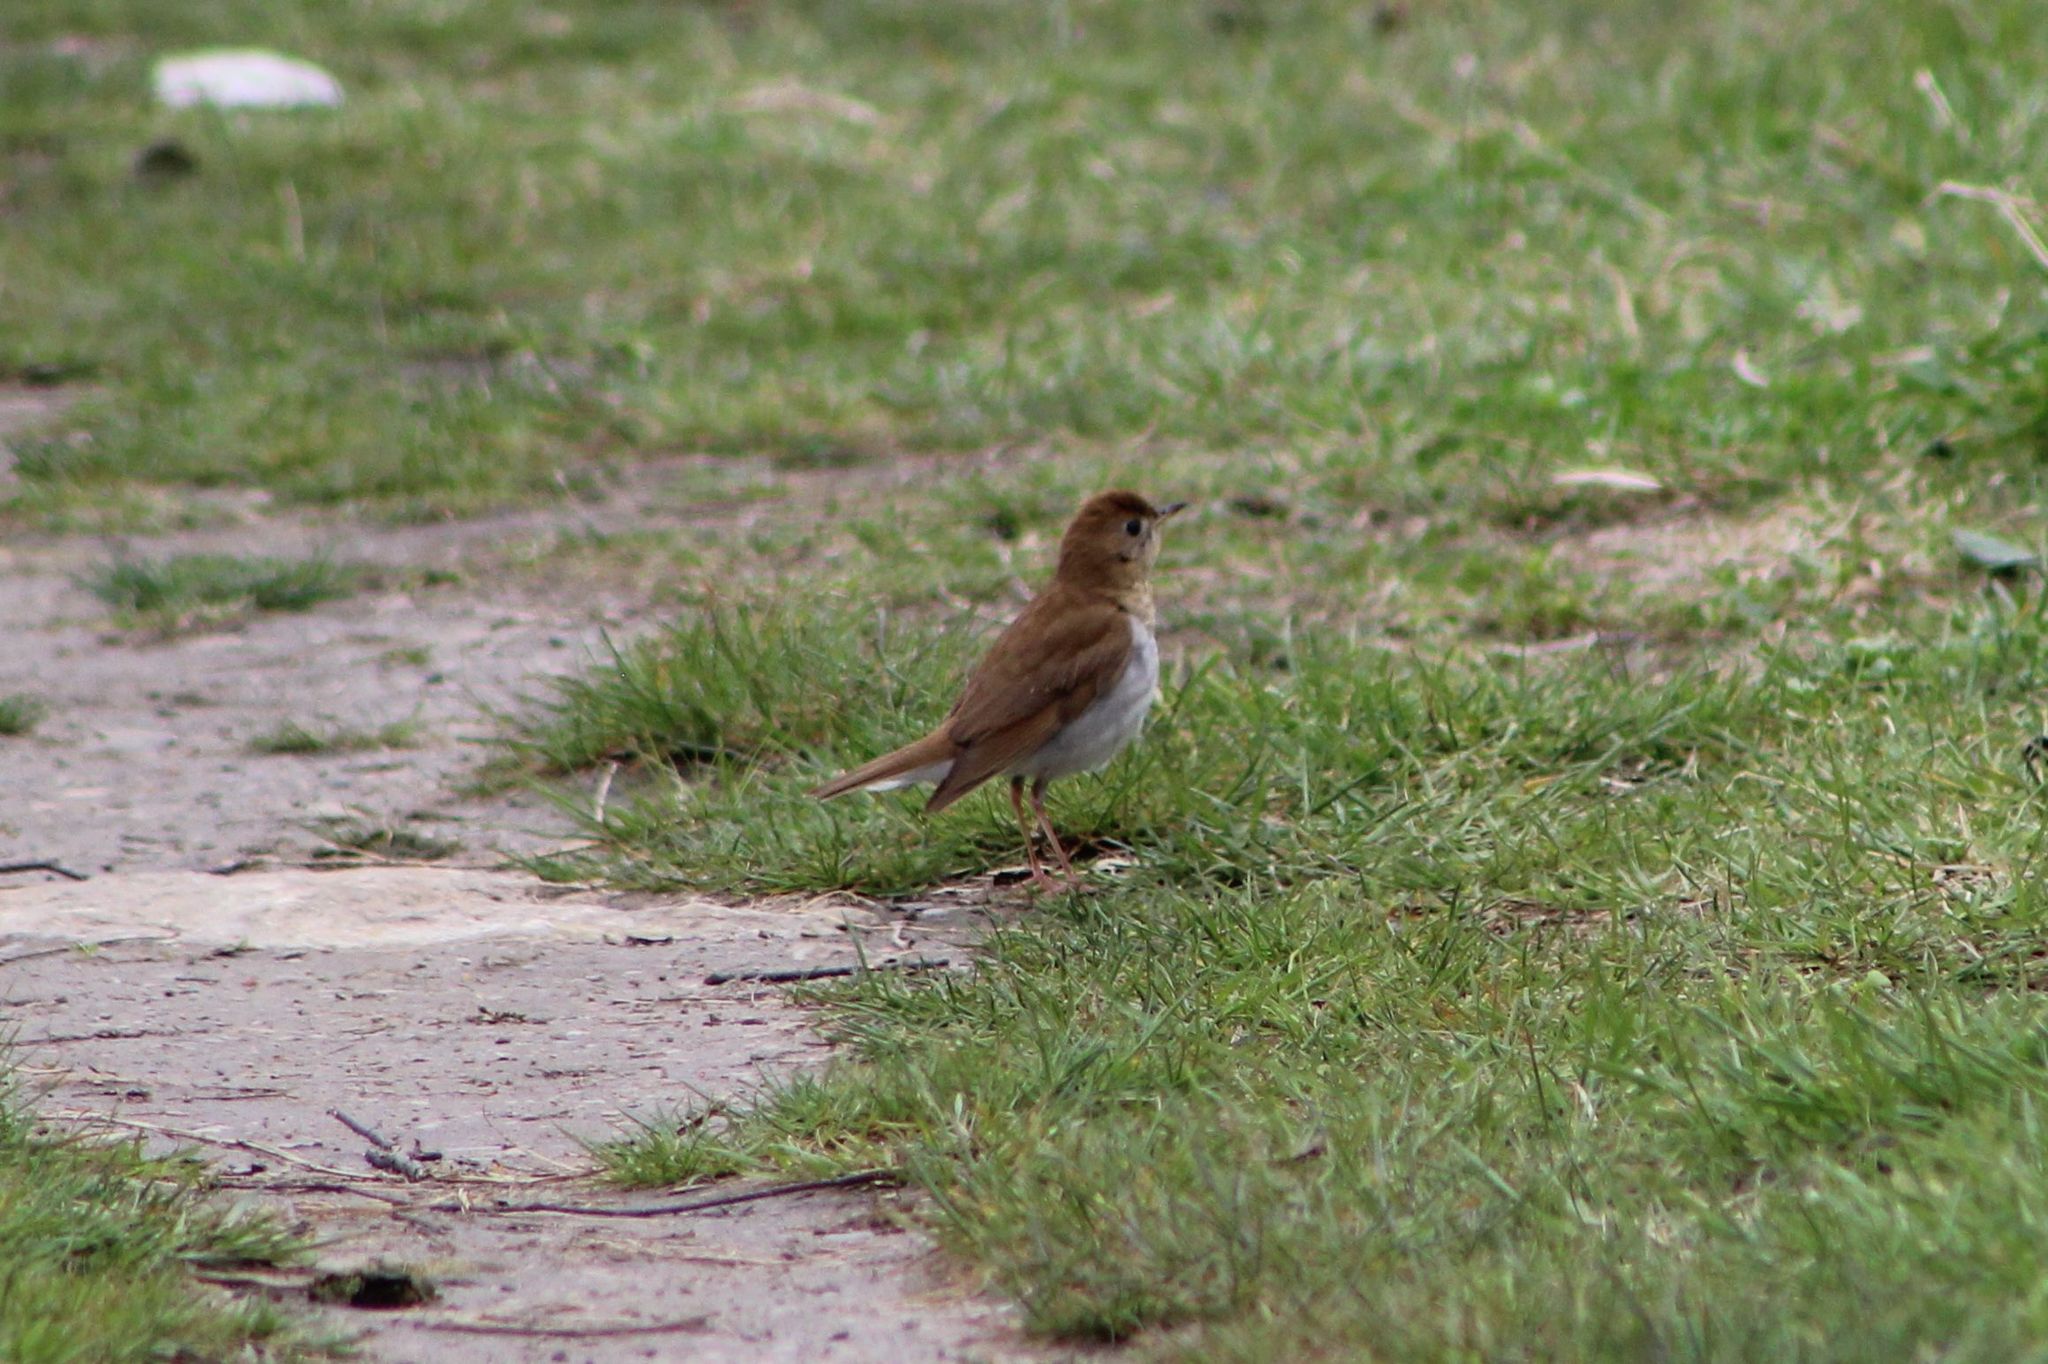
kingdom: Animalia
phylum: Chordata
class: Aves
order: Passeriformes
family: Turdidae
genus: Catharus
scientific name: Catharus fuscescens
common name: Veery
